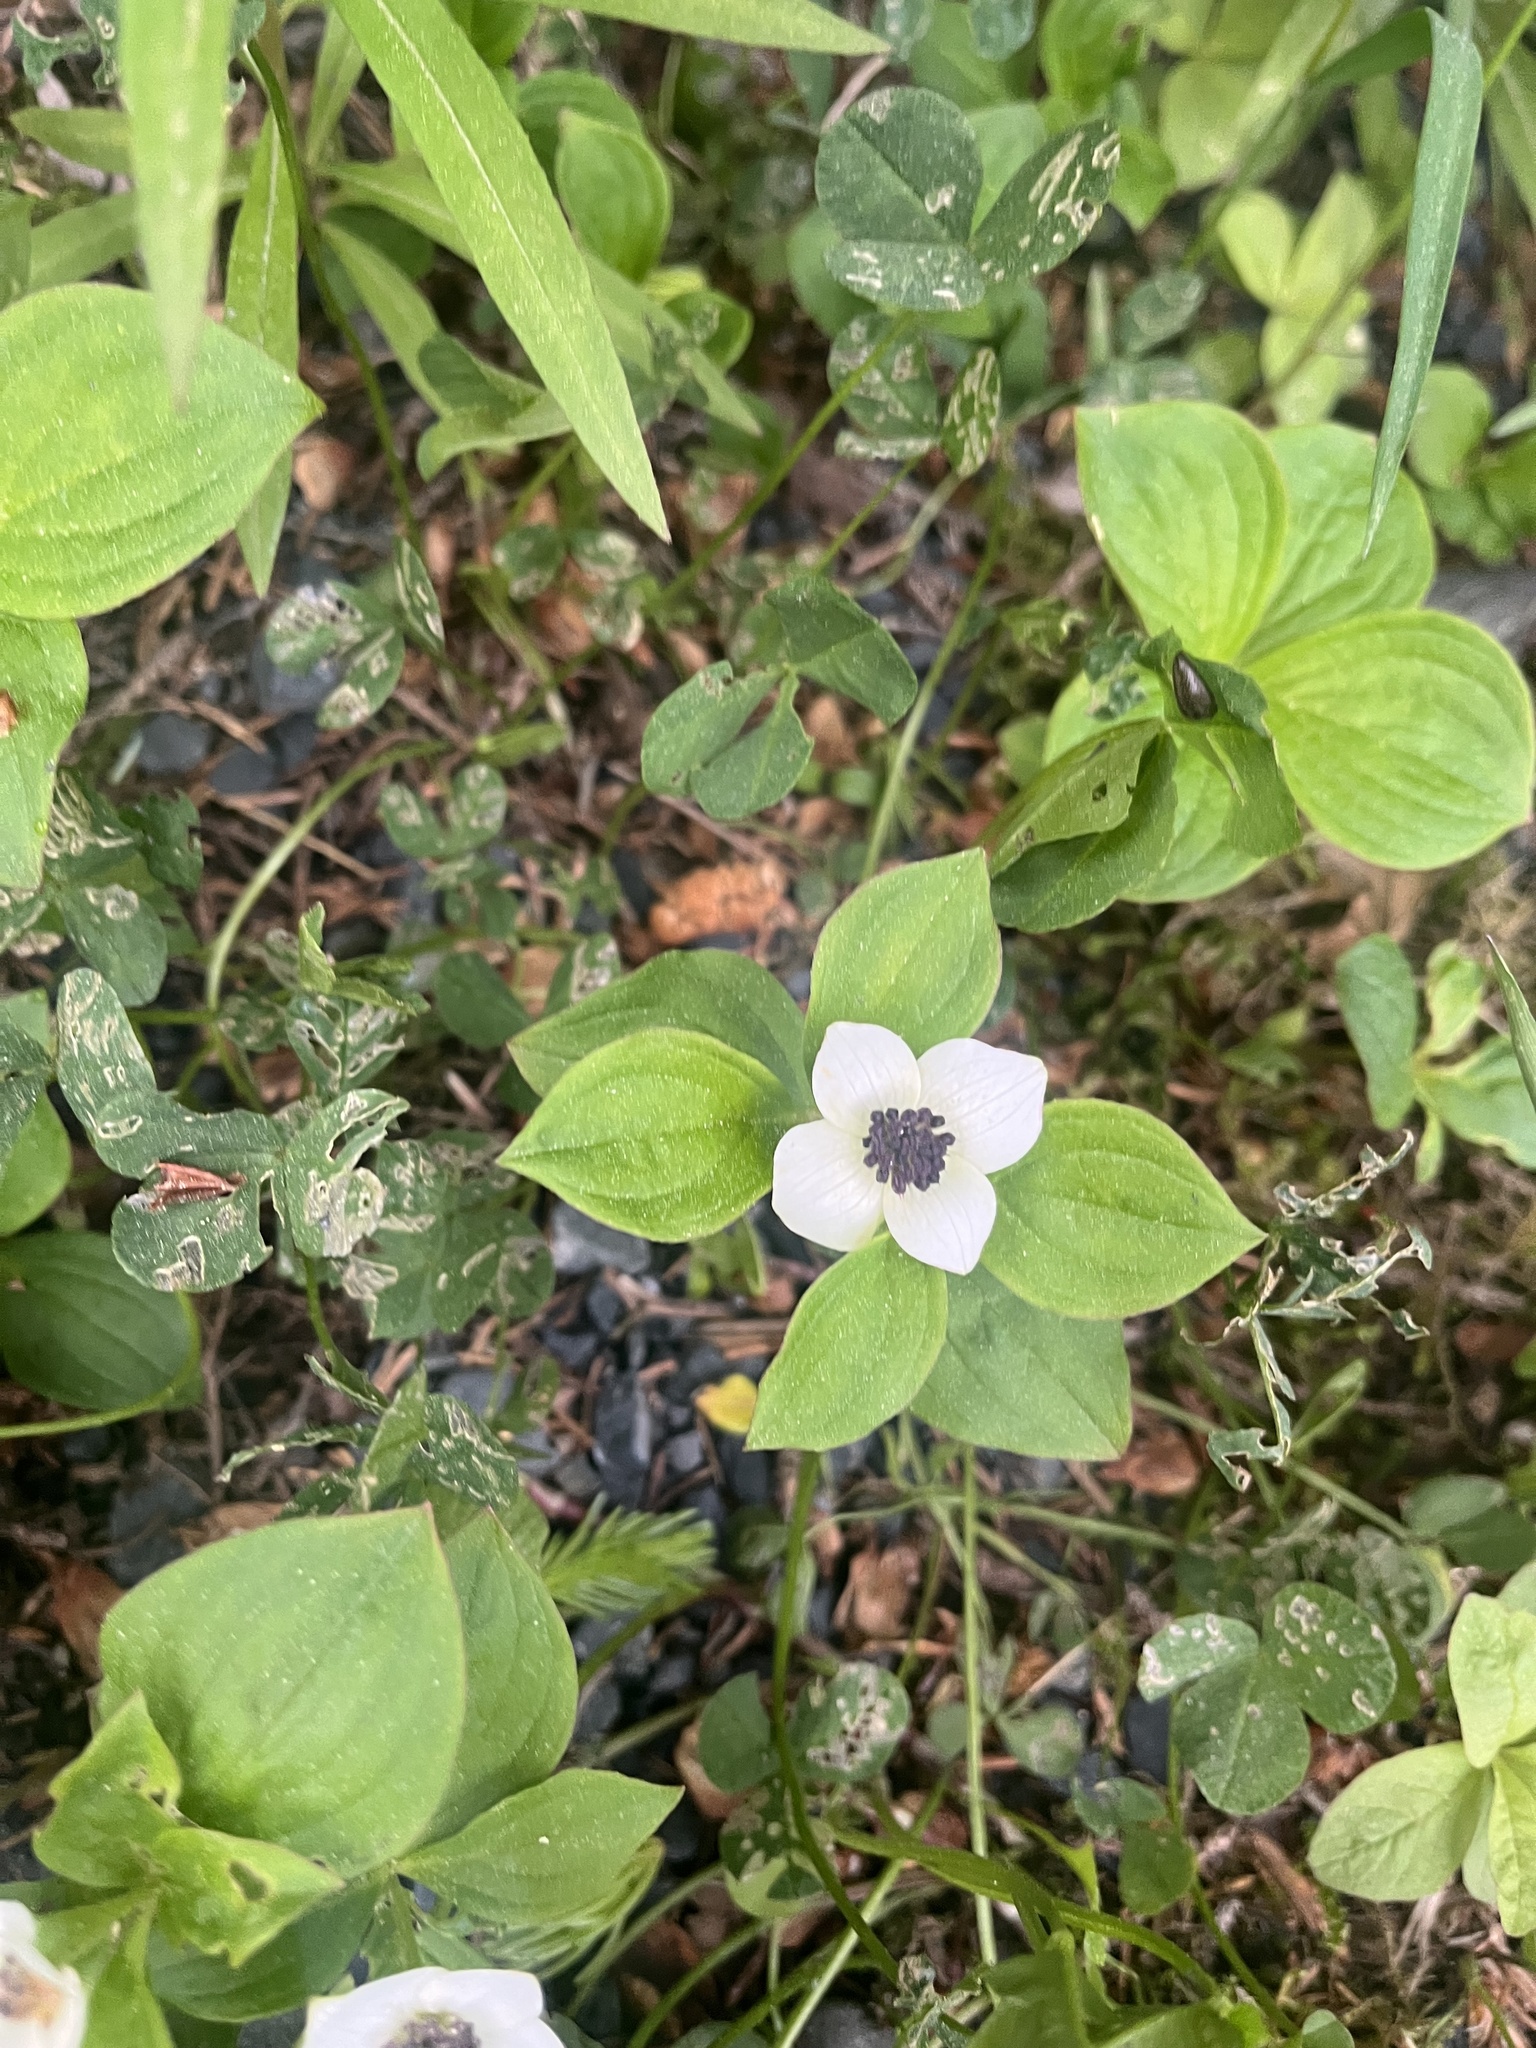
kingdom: Plantae
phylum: Tracheophyta
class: Magnoliopsida
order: Cornales
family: Cornaceae
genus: Cornus
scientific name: Cornus unalaschkensis
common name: Alaska bunchberry
